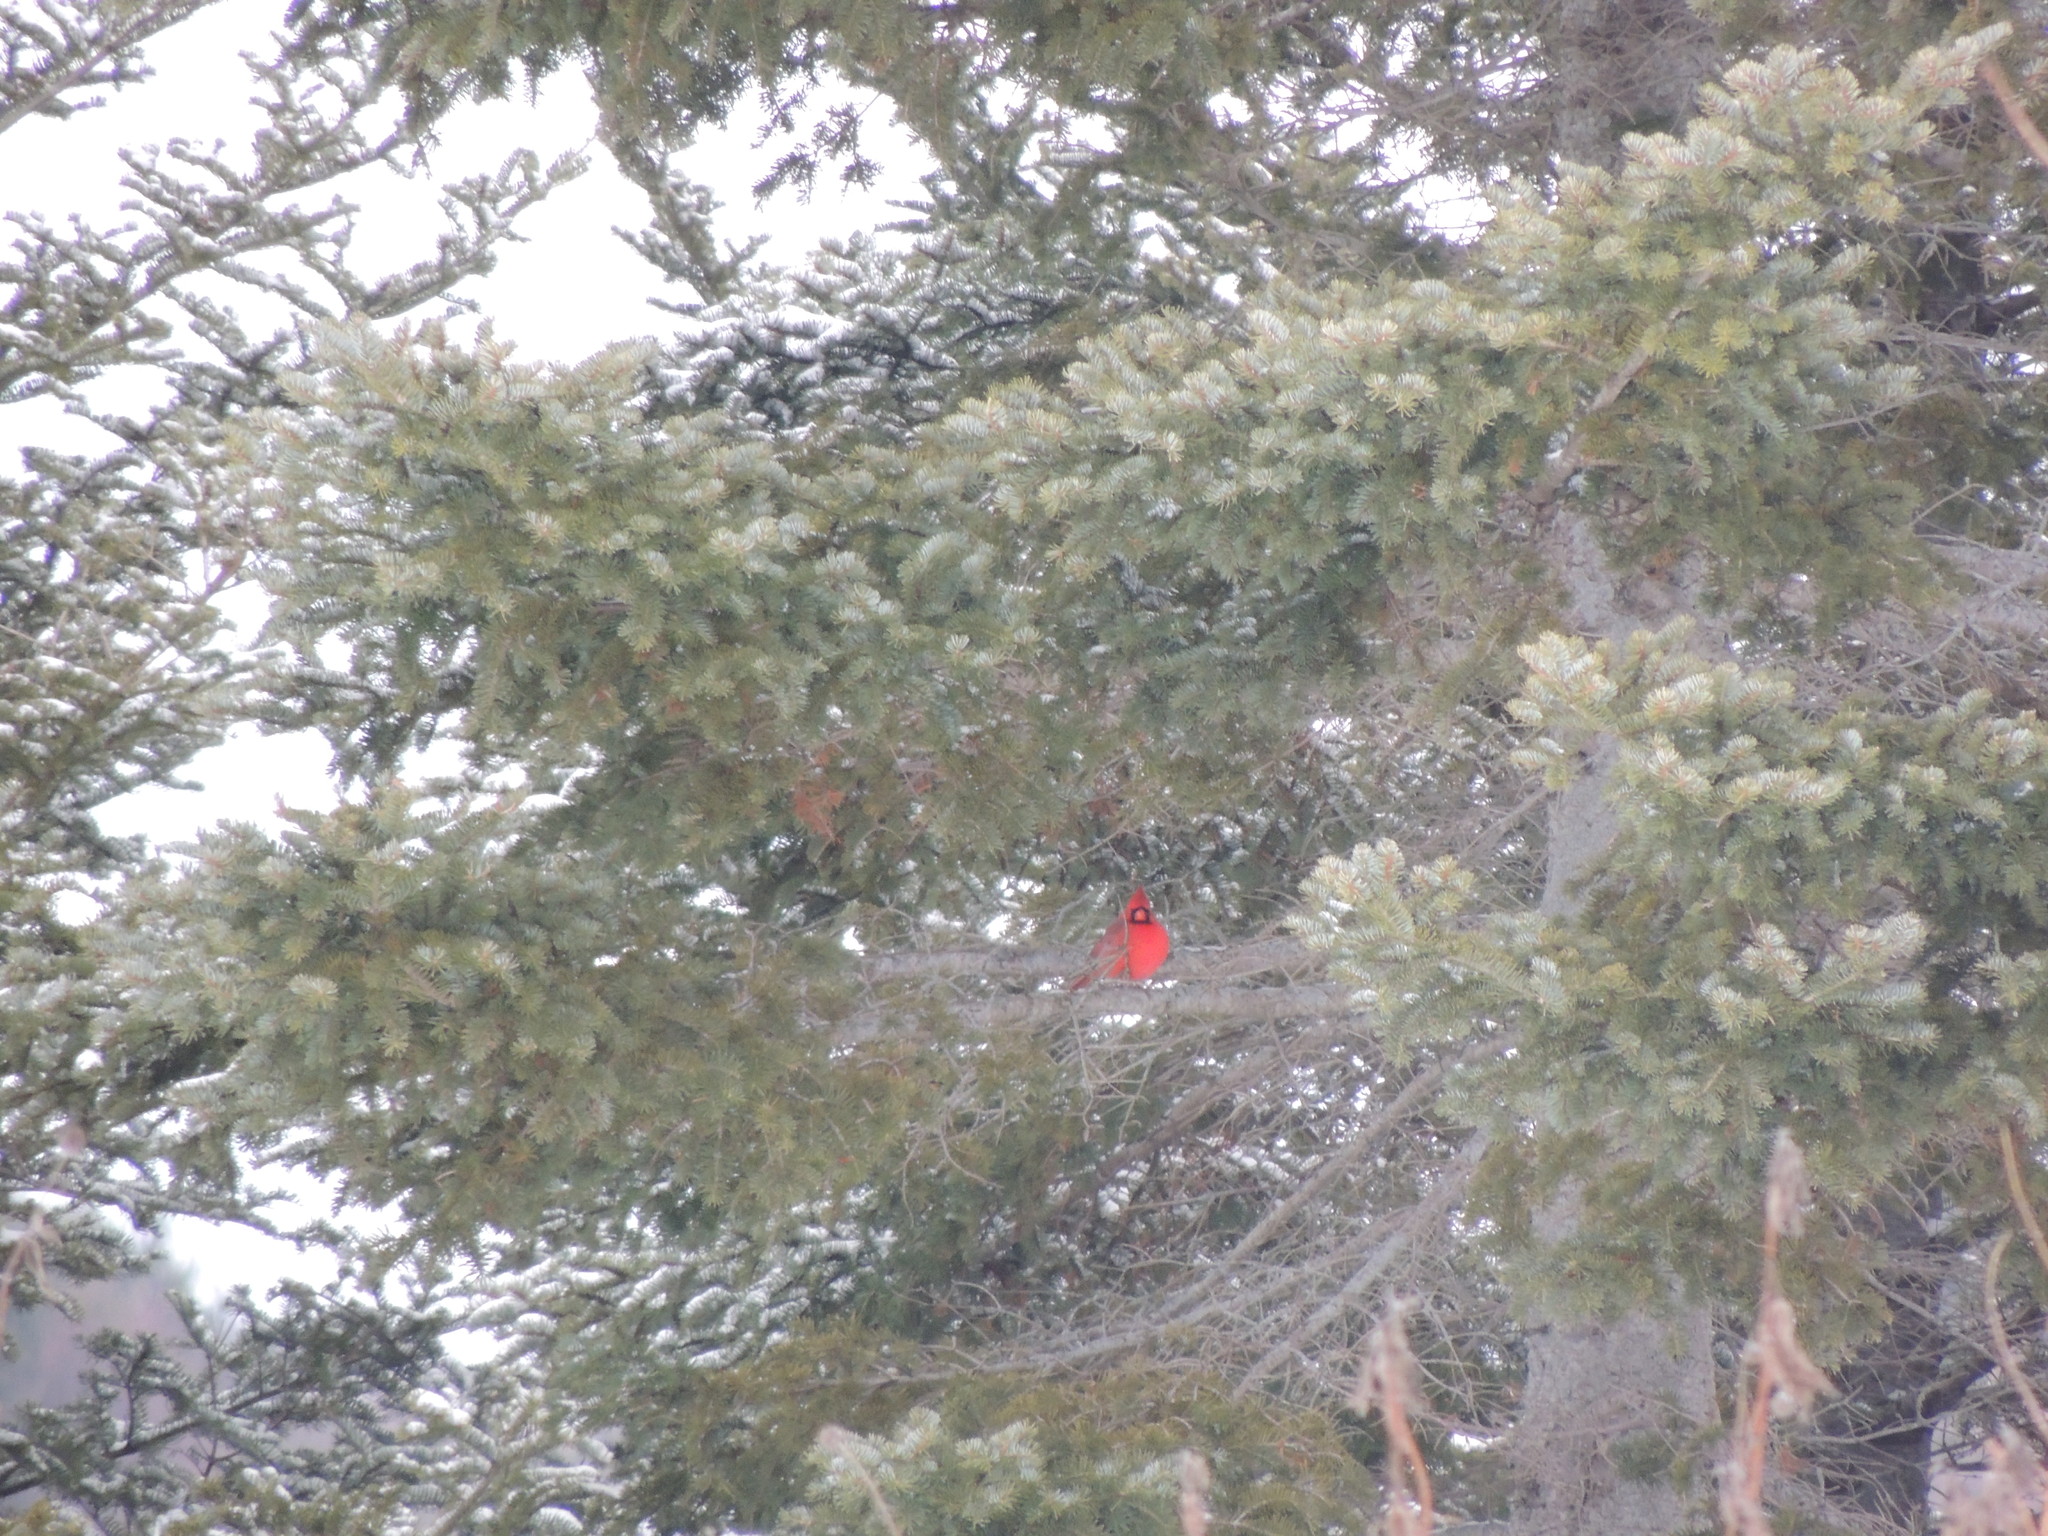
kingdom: Animalia
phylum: Chordata
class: Aves
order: Passeriformes
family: Cardinalidae
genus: Cardinalis
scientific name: Cardinalis cardinalis
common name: Northern cardinal
